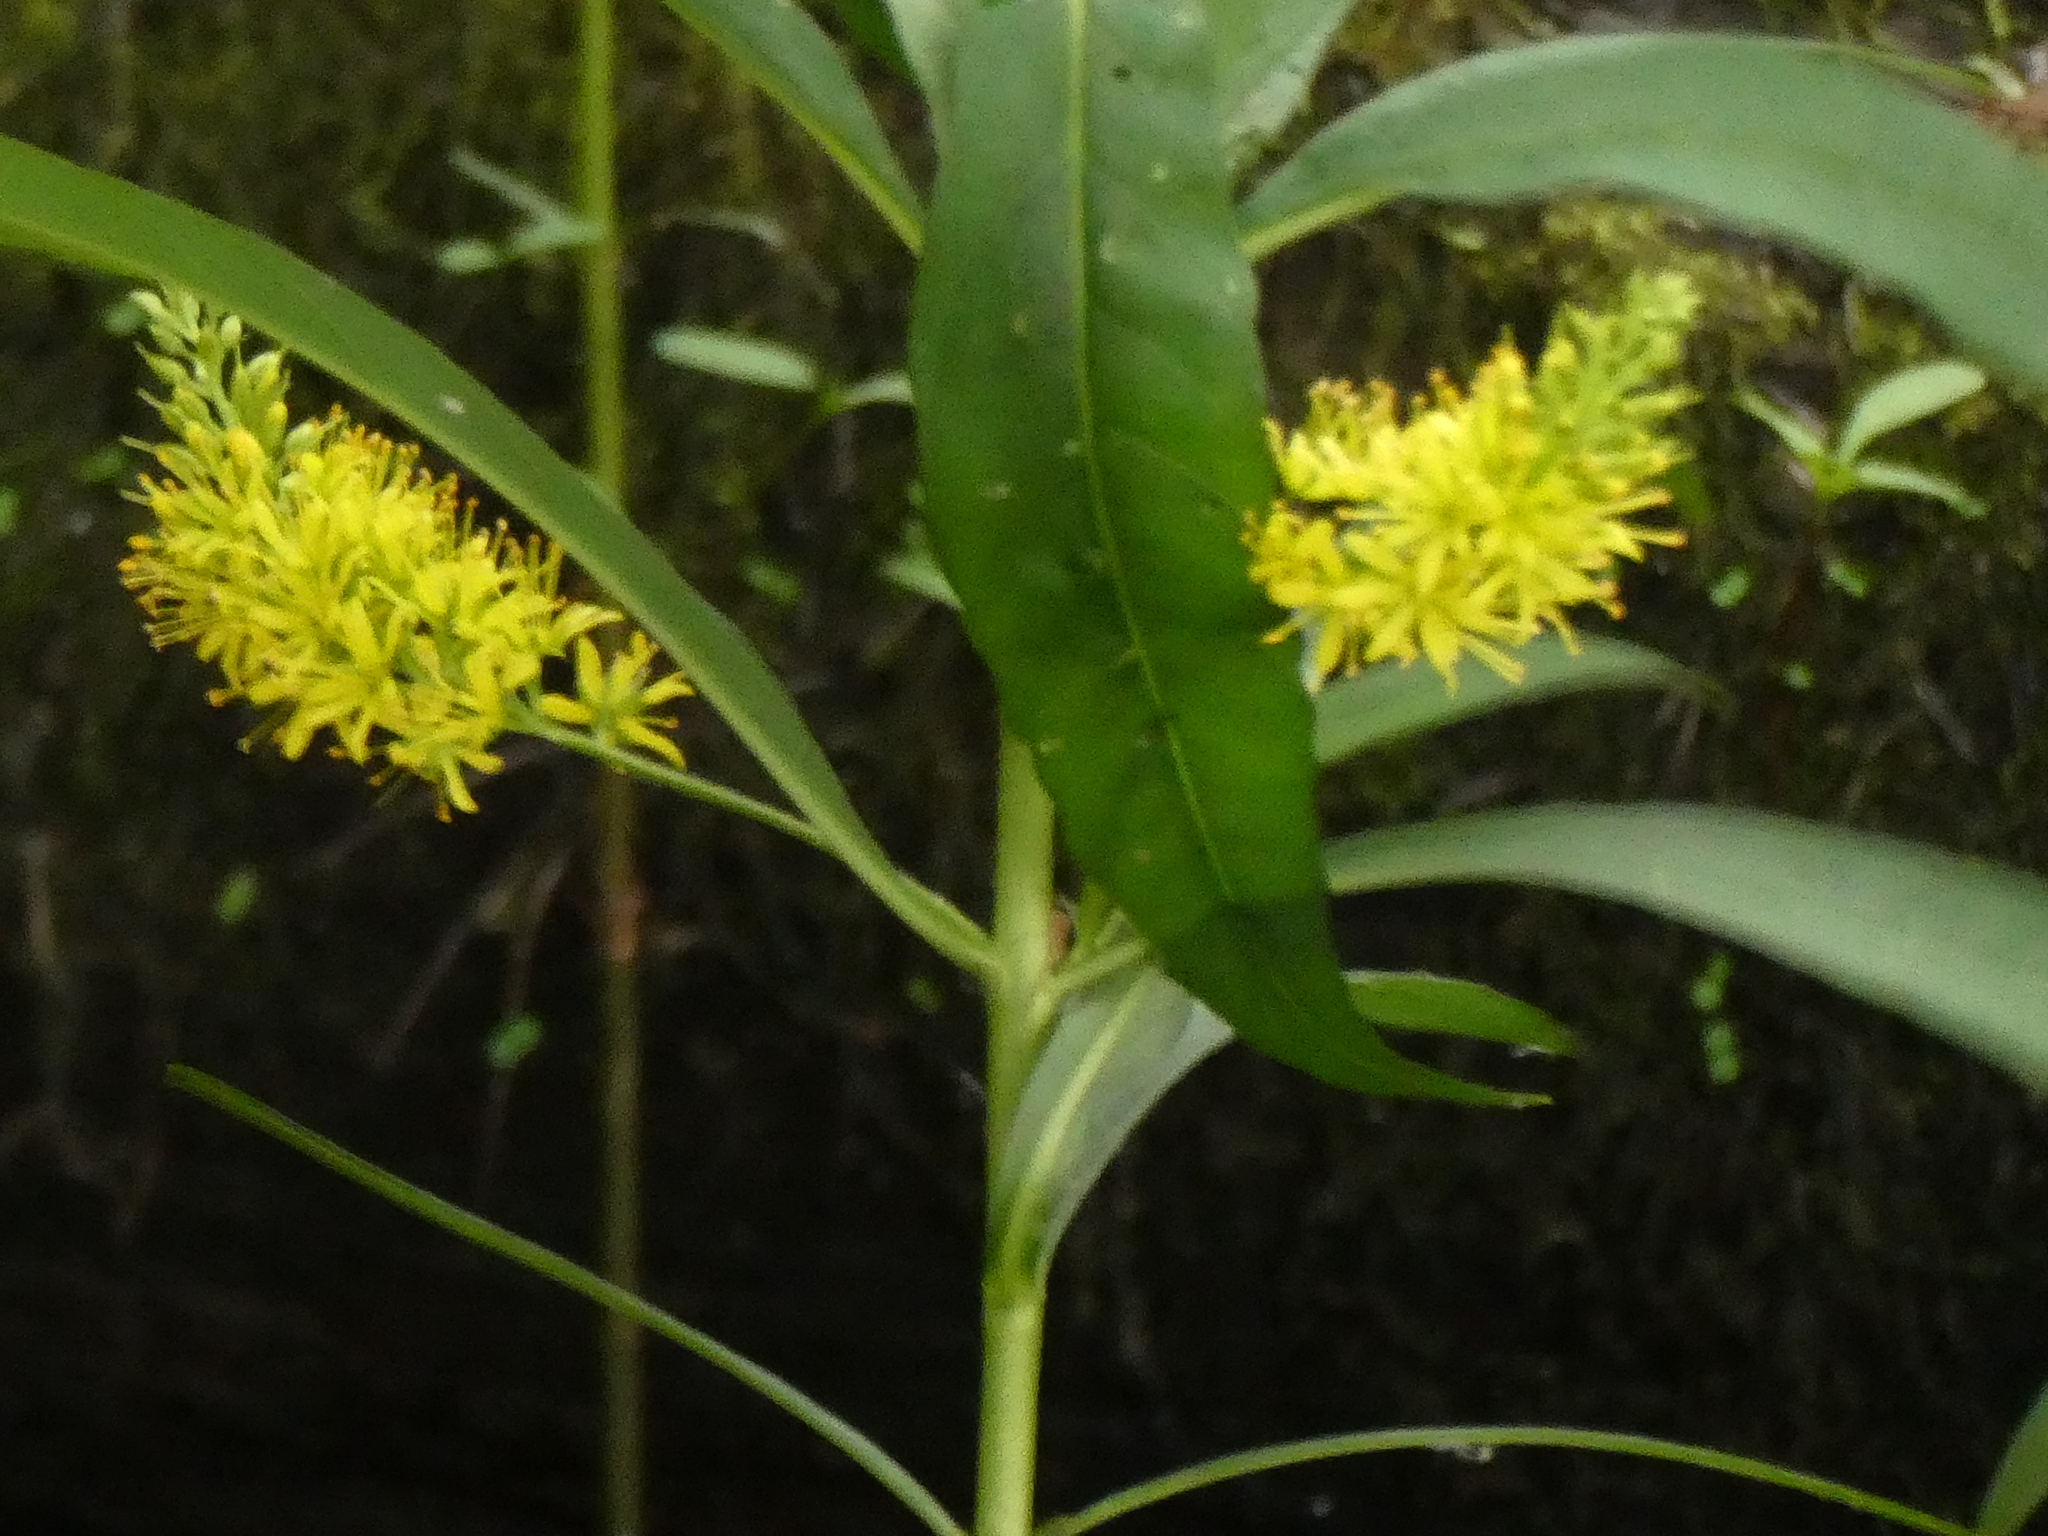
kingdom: Plantae
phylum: Tracheophyta
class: Magnoliopsida
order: Ericales
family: Primulaceae
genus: Lysimachia
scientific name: Lysimachia thyrsiflora
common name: Tufted loosestrife
